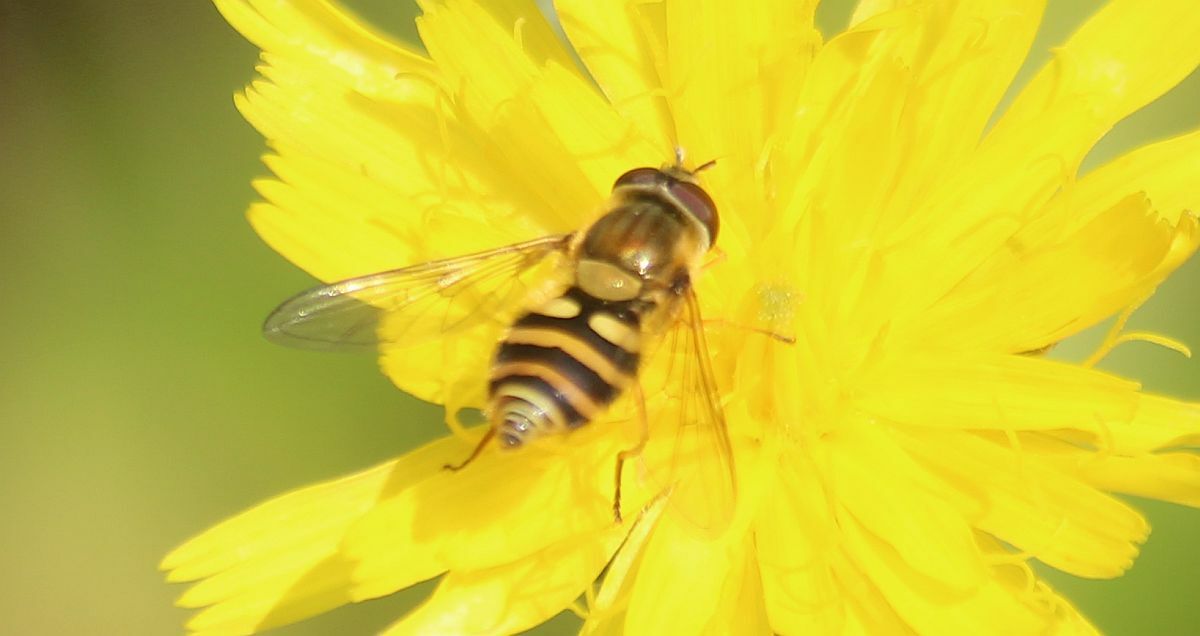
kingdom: Animalia
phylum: Arthropoda
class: Insecta
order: Diptera
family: Syrphidae
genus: Syrphus
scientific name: Syrphus ribesii
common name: Common flower fly
